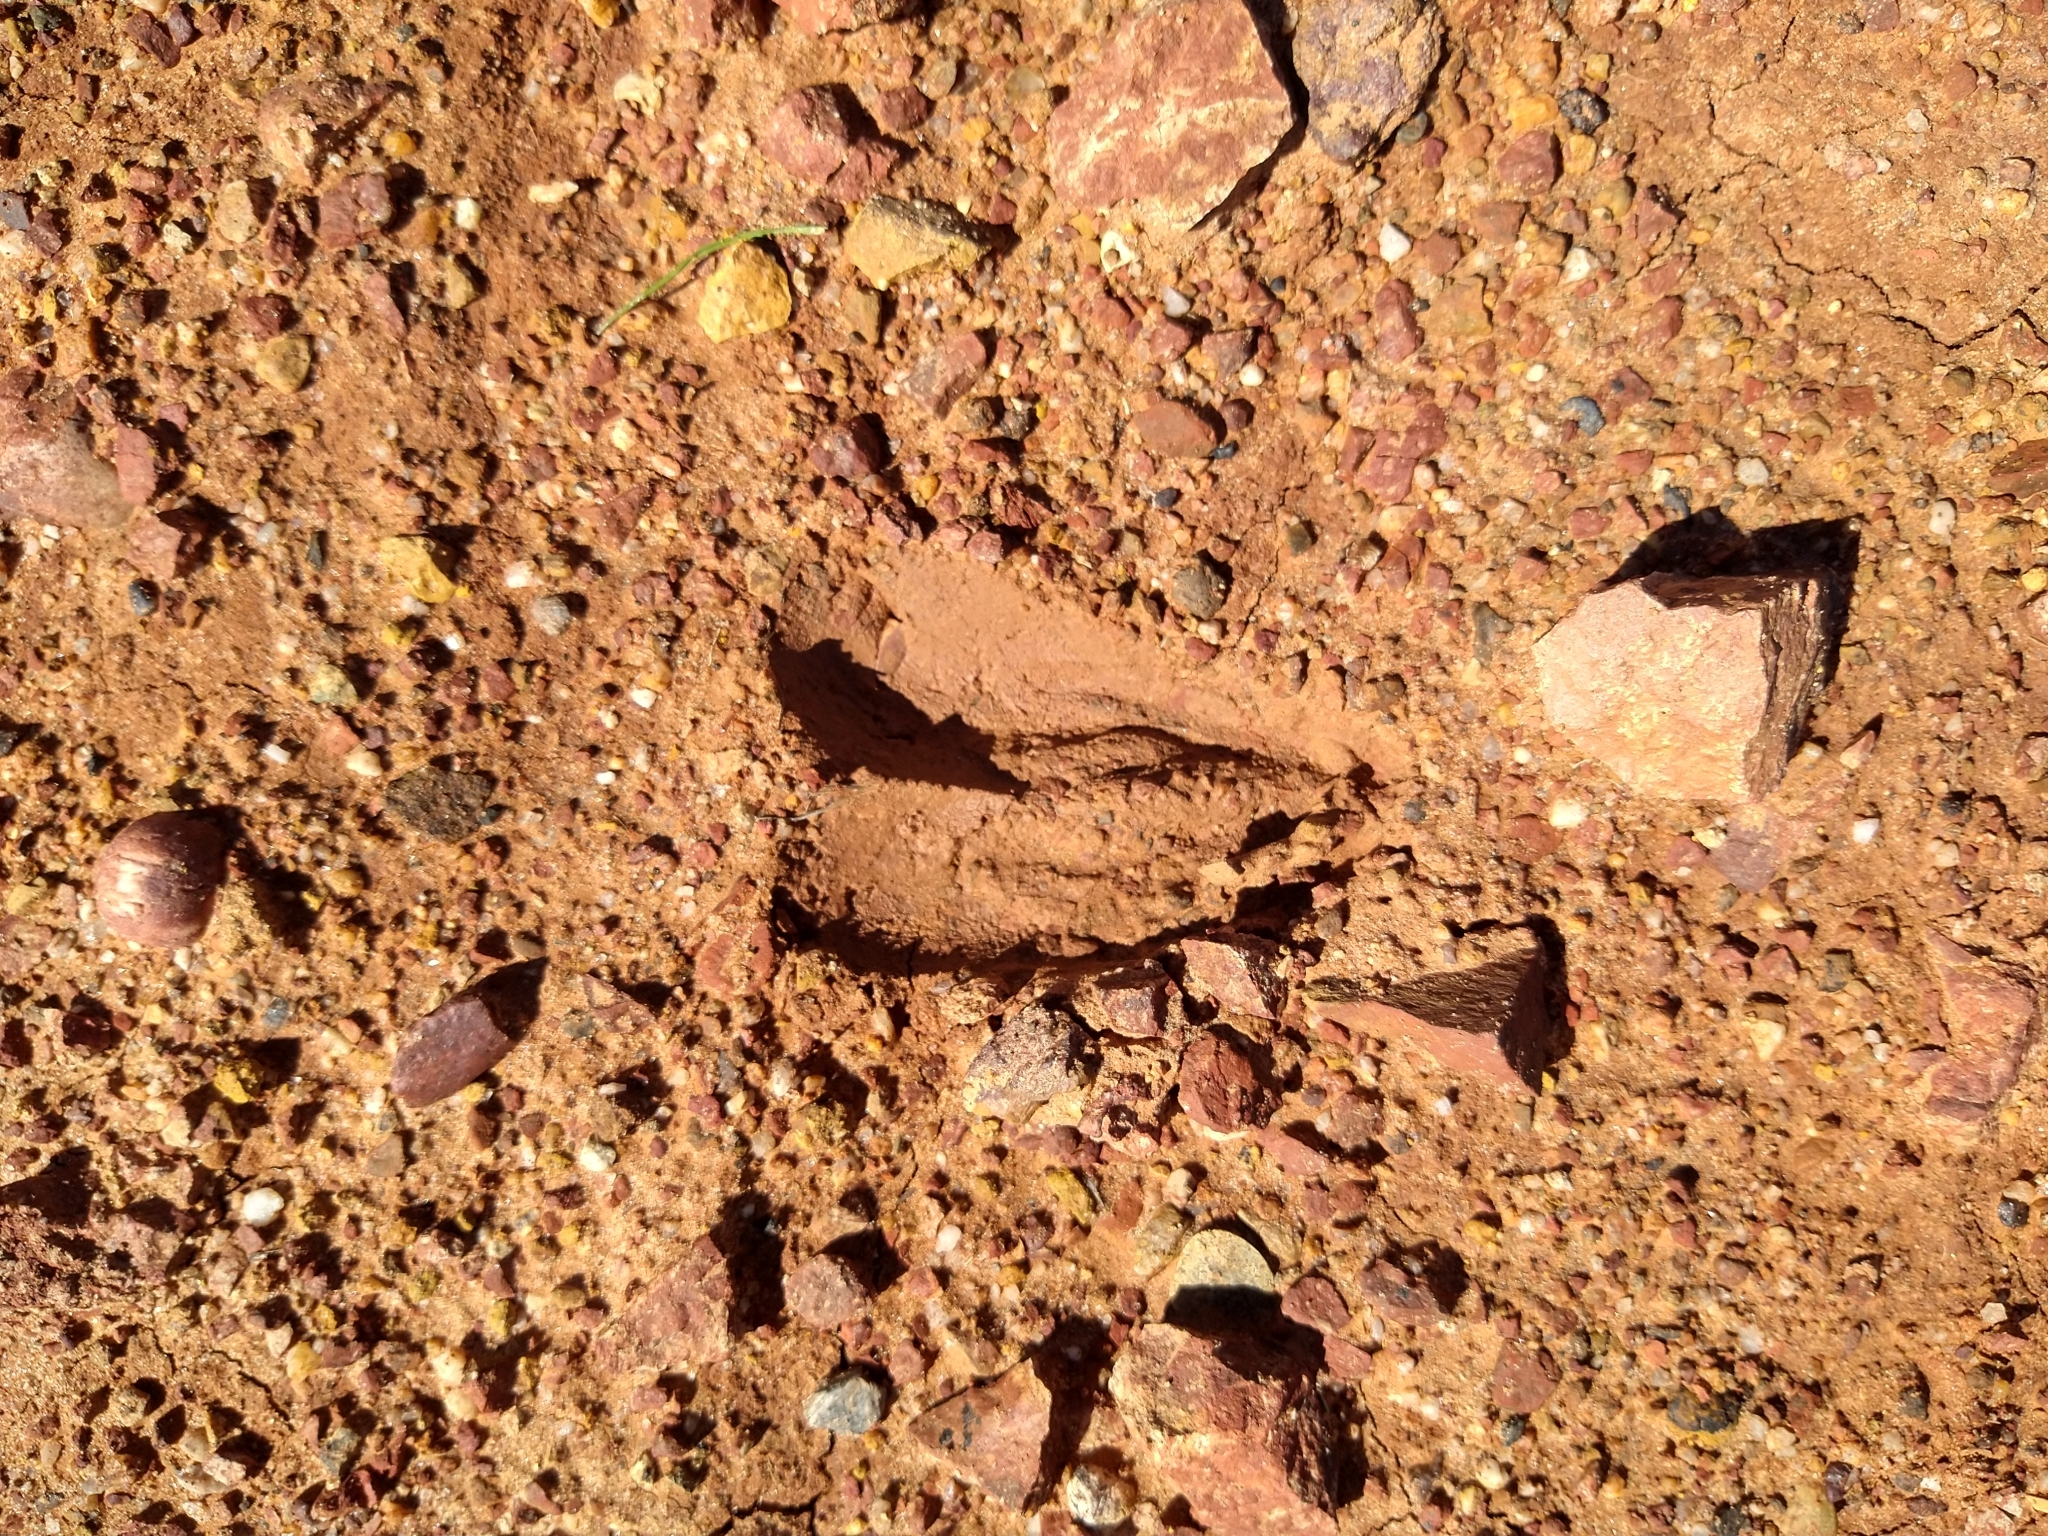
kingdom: Animalia
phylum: Chordata
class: Mammalia
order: Artiodactyla
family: Cervidae
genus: Odocoileus
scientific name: Odocoileus hemionus
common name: Mule deer
